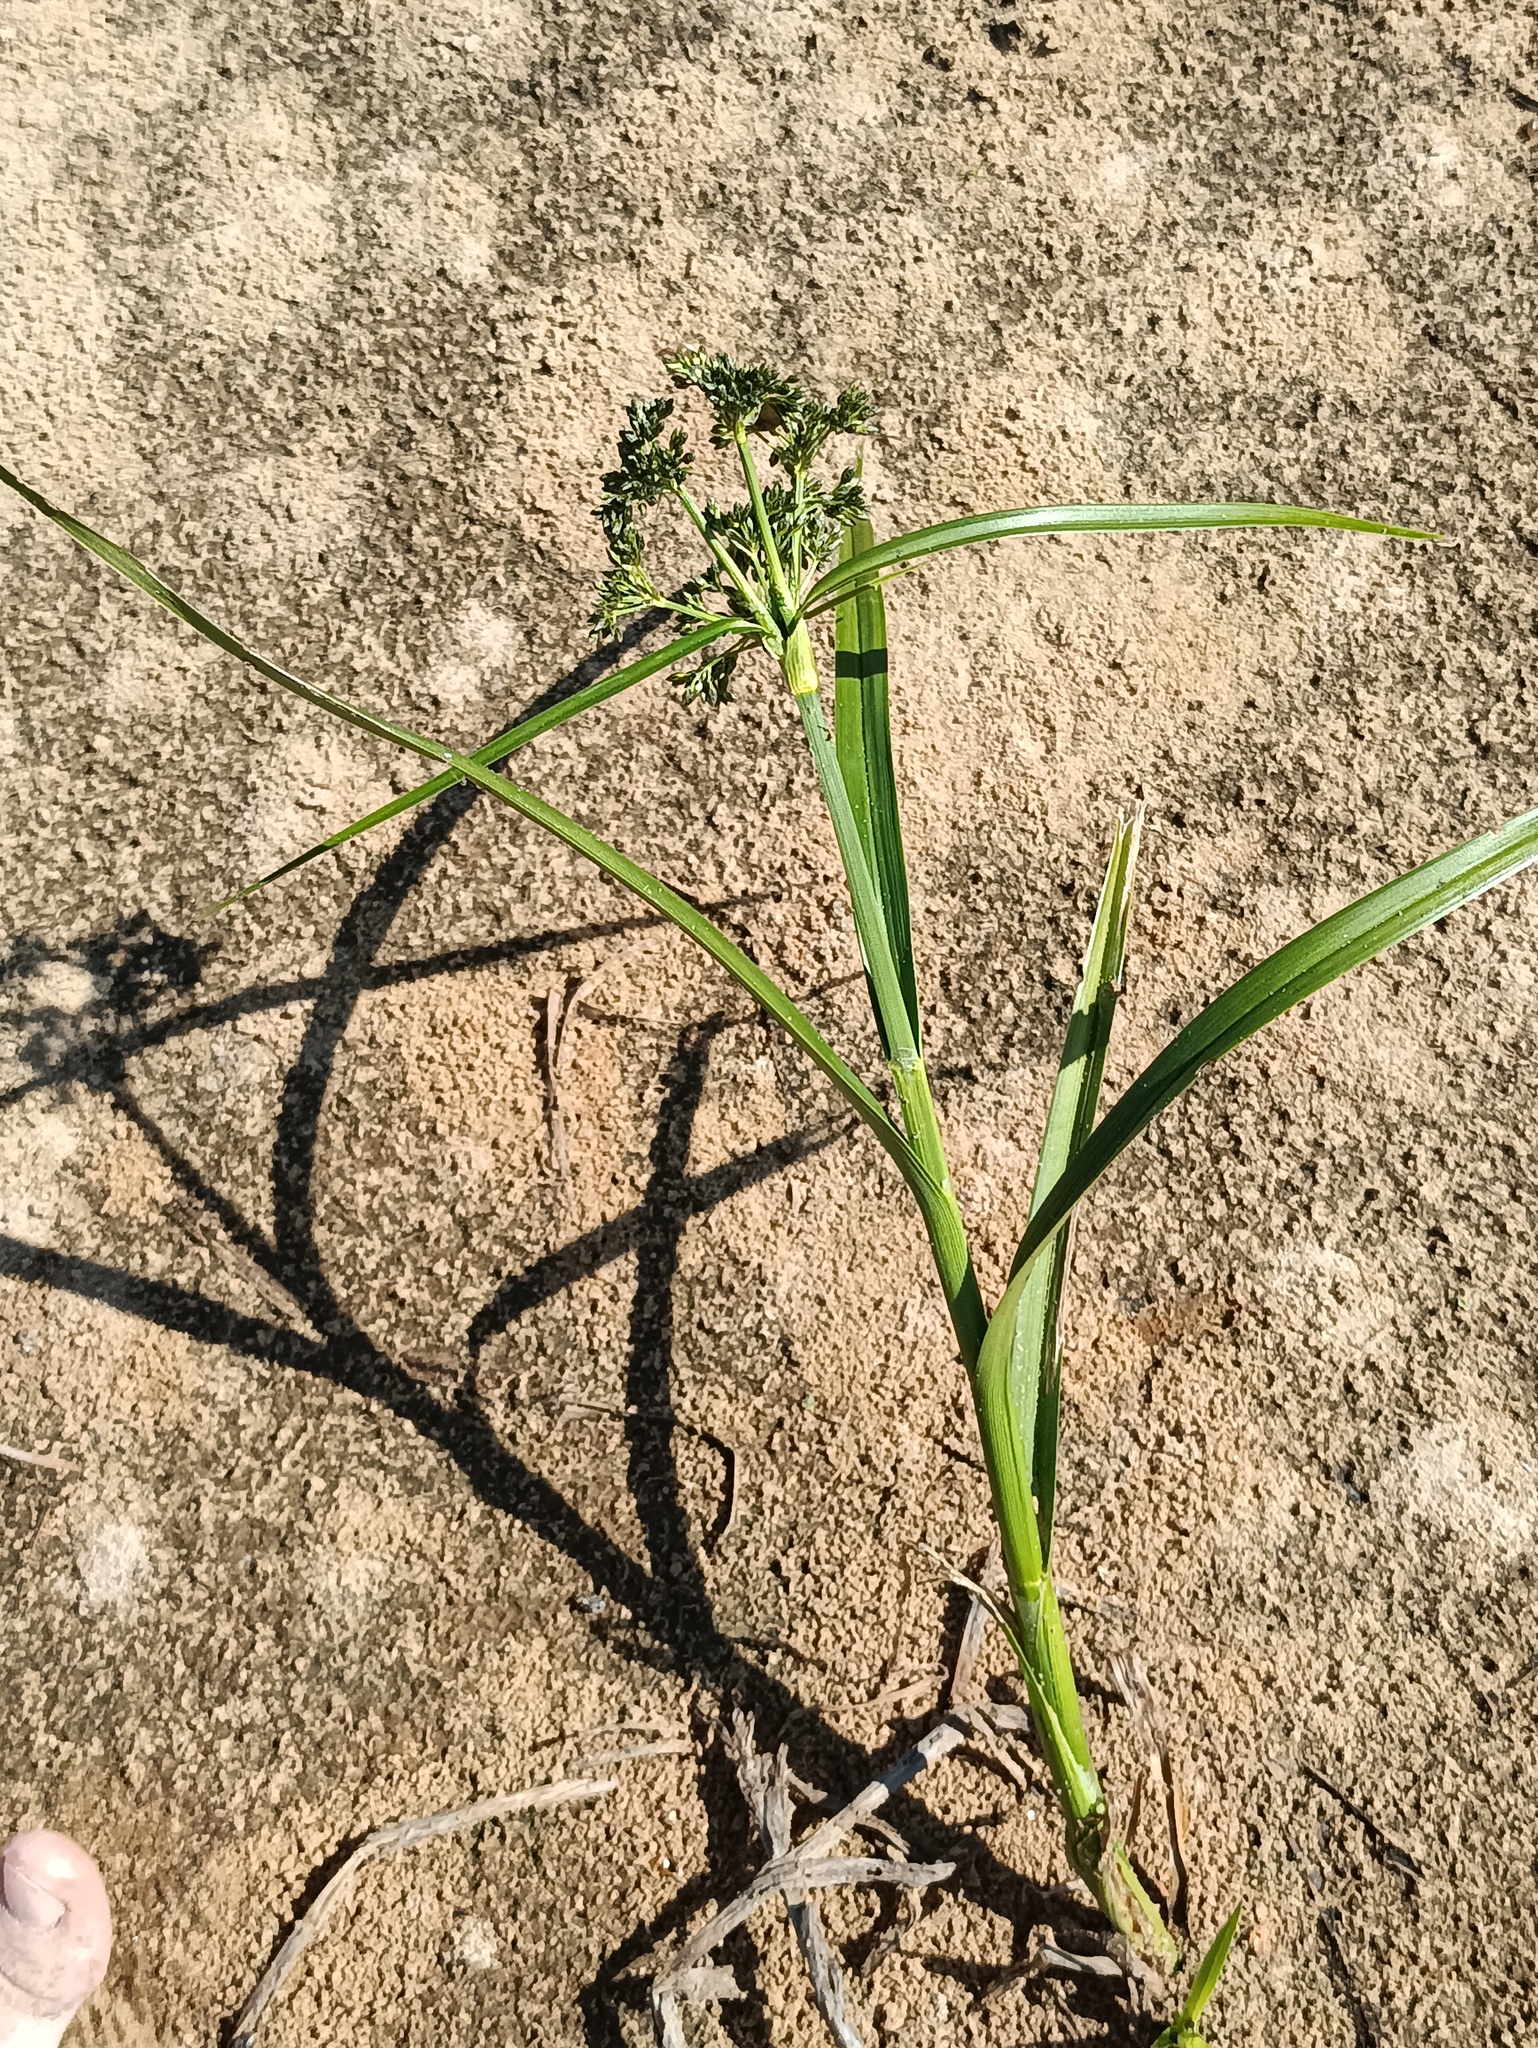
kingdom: Plantae
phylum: Tracheophyta
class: Liliopsida
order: Poales
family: Cyperaceae
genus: Scirpus
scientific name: Scirpus sylvaticus
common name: Wood club-rush
